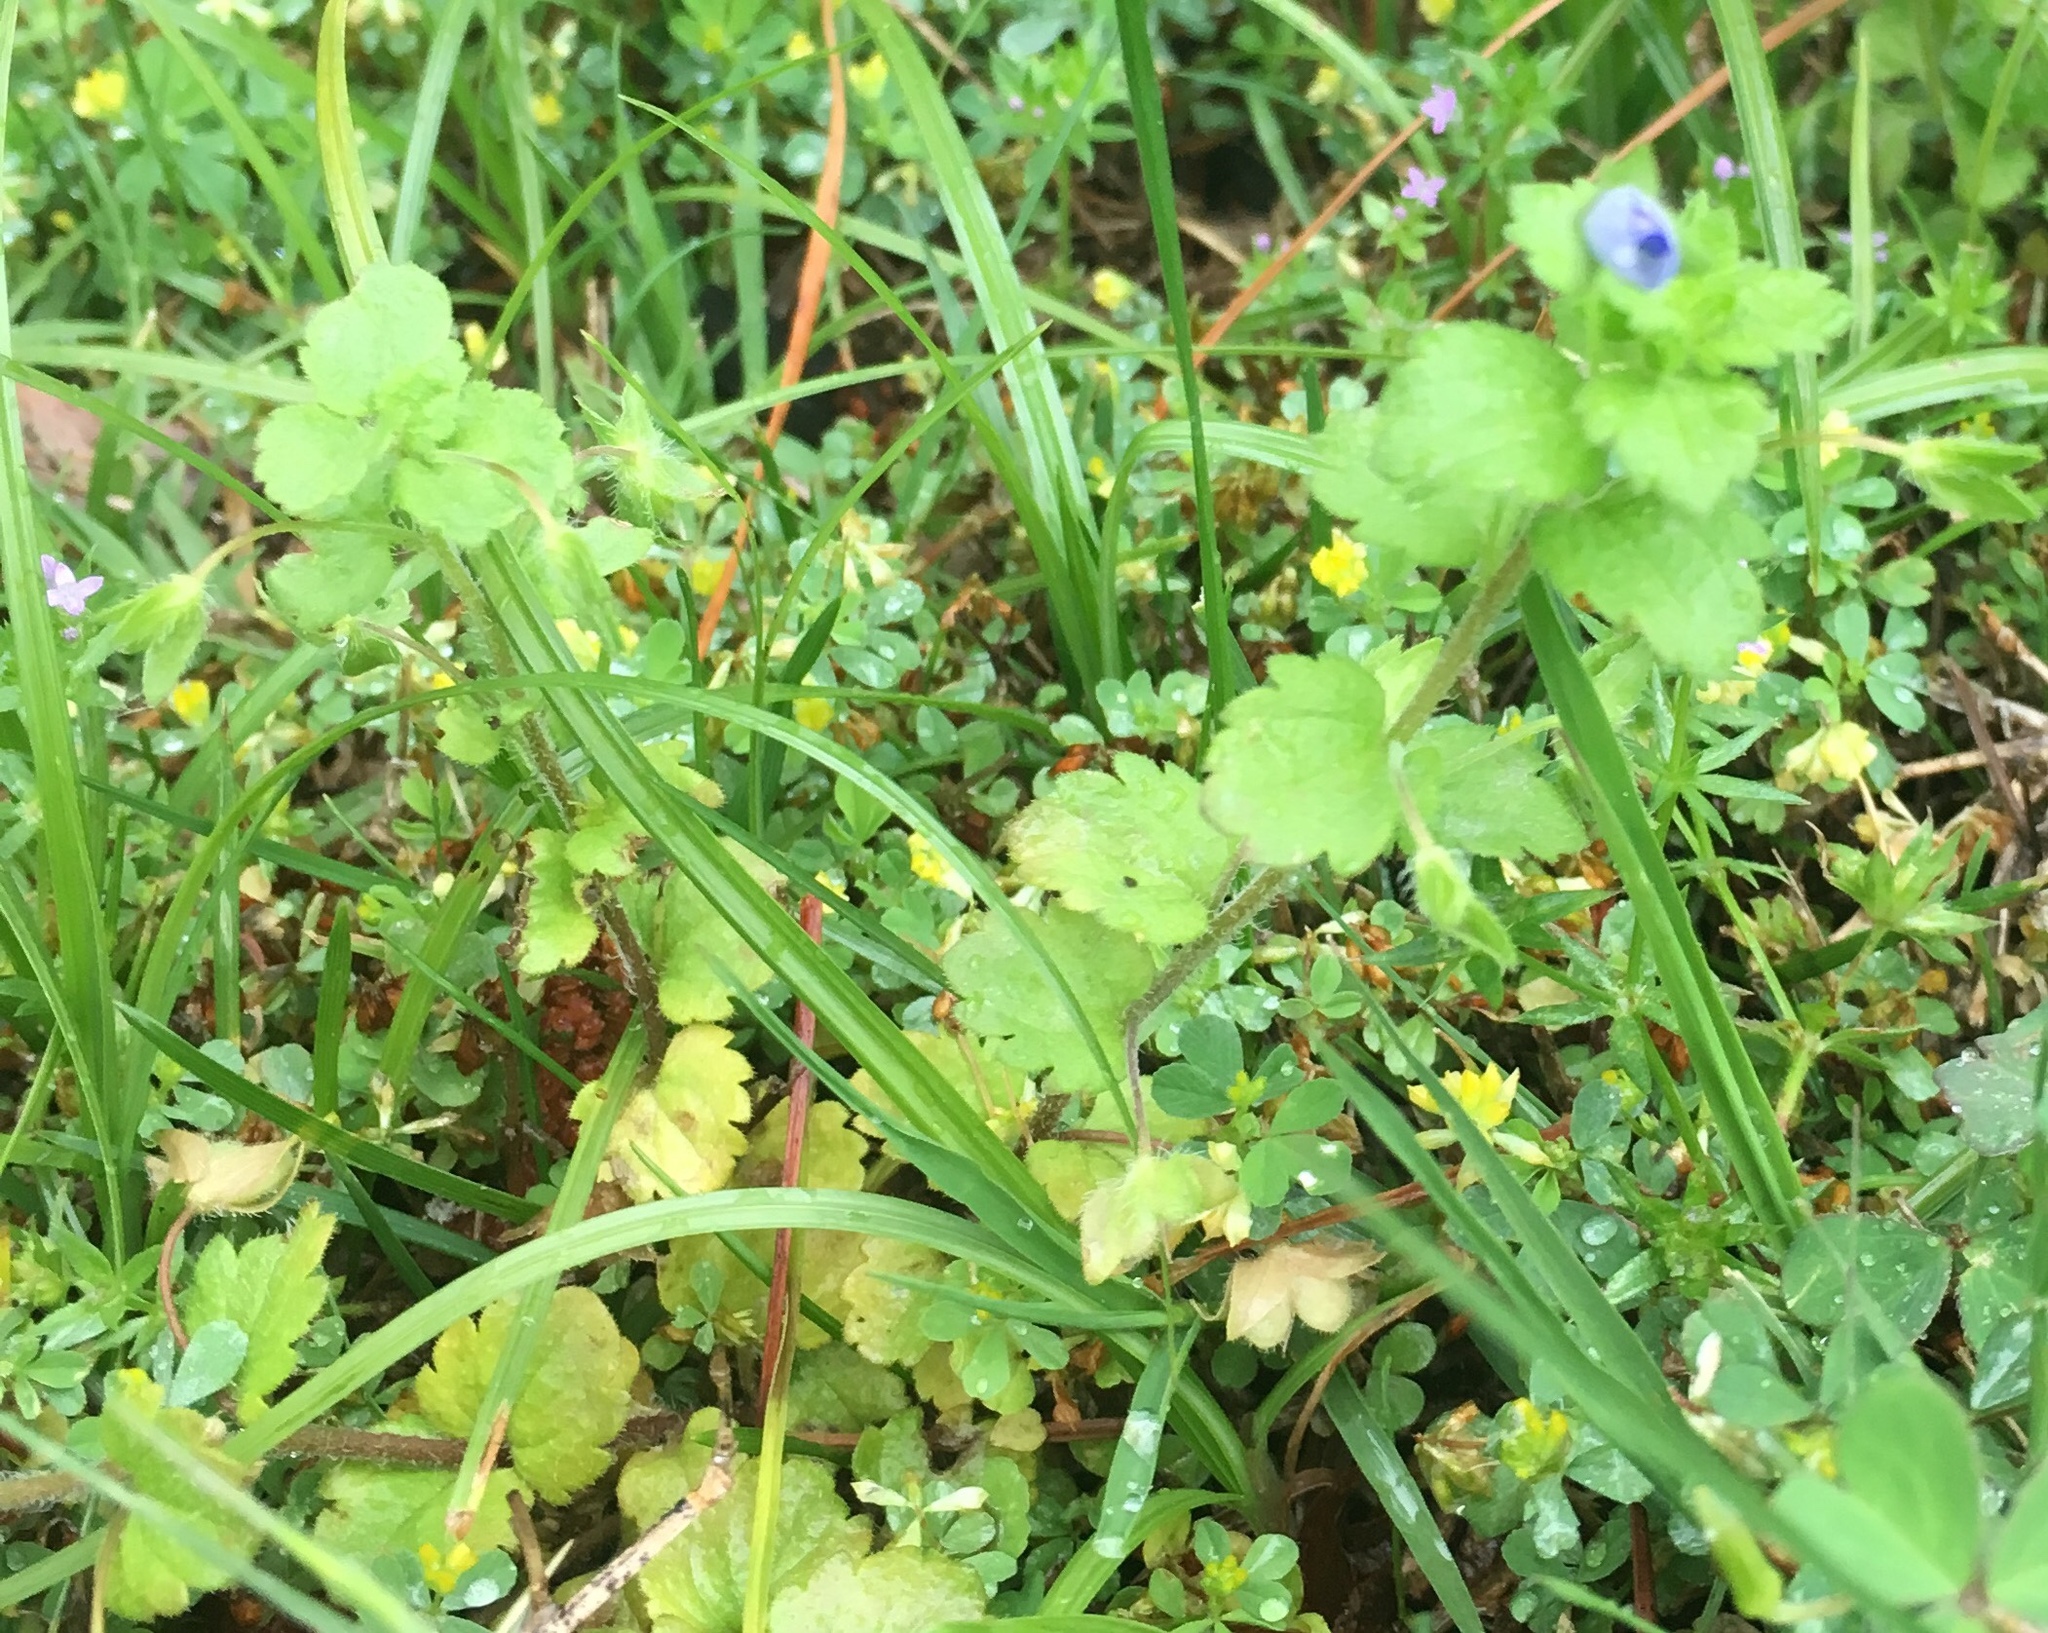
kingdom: Plantae
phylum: Tracheophyta
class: Magnoliopsida
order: Lamiales
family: Plantaginaceae
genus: Veronica
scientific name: Veronica persica
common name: Common field-speedwell
